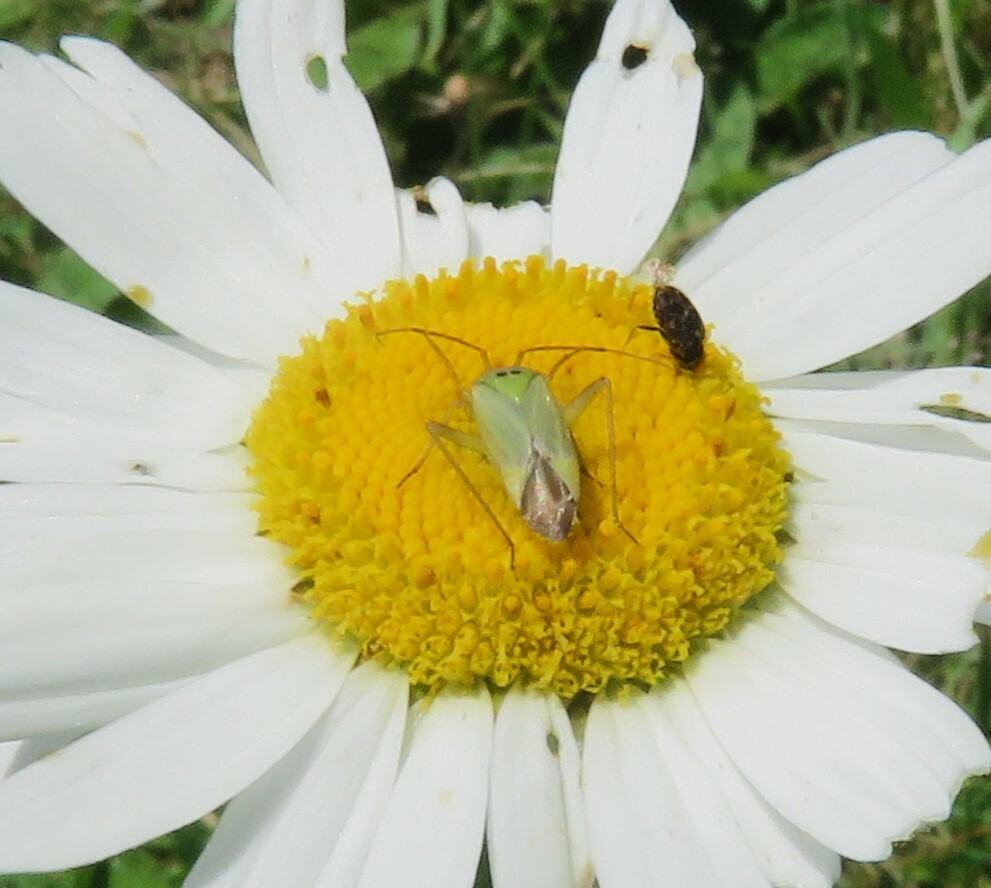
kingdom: Animalia
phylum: Arthropoda
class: Insecta
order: Hemiptera
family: Miridae
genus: Adelphocoris
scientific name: Adelphocoris lineolatus
